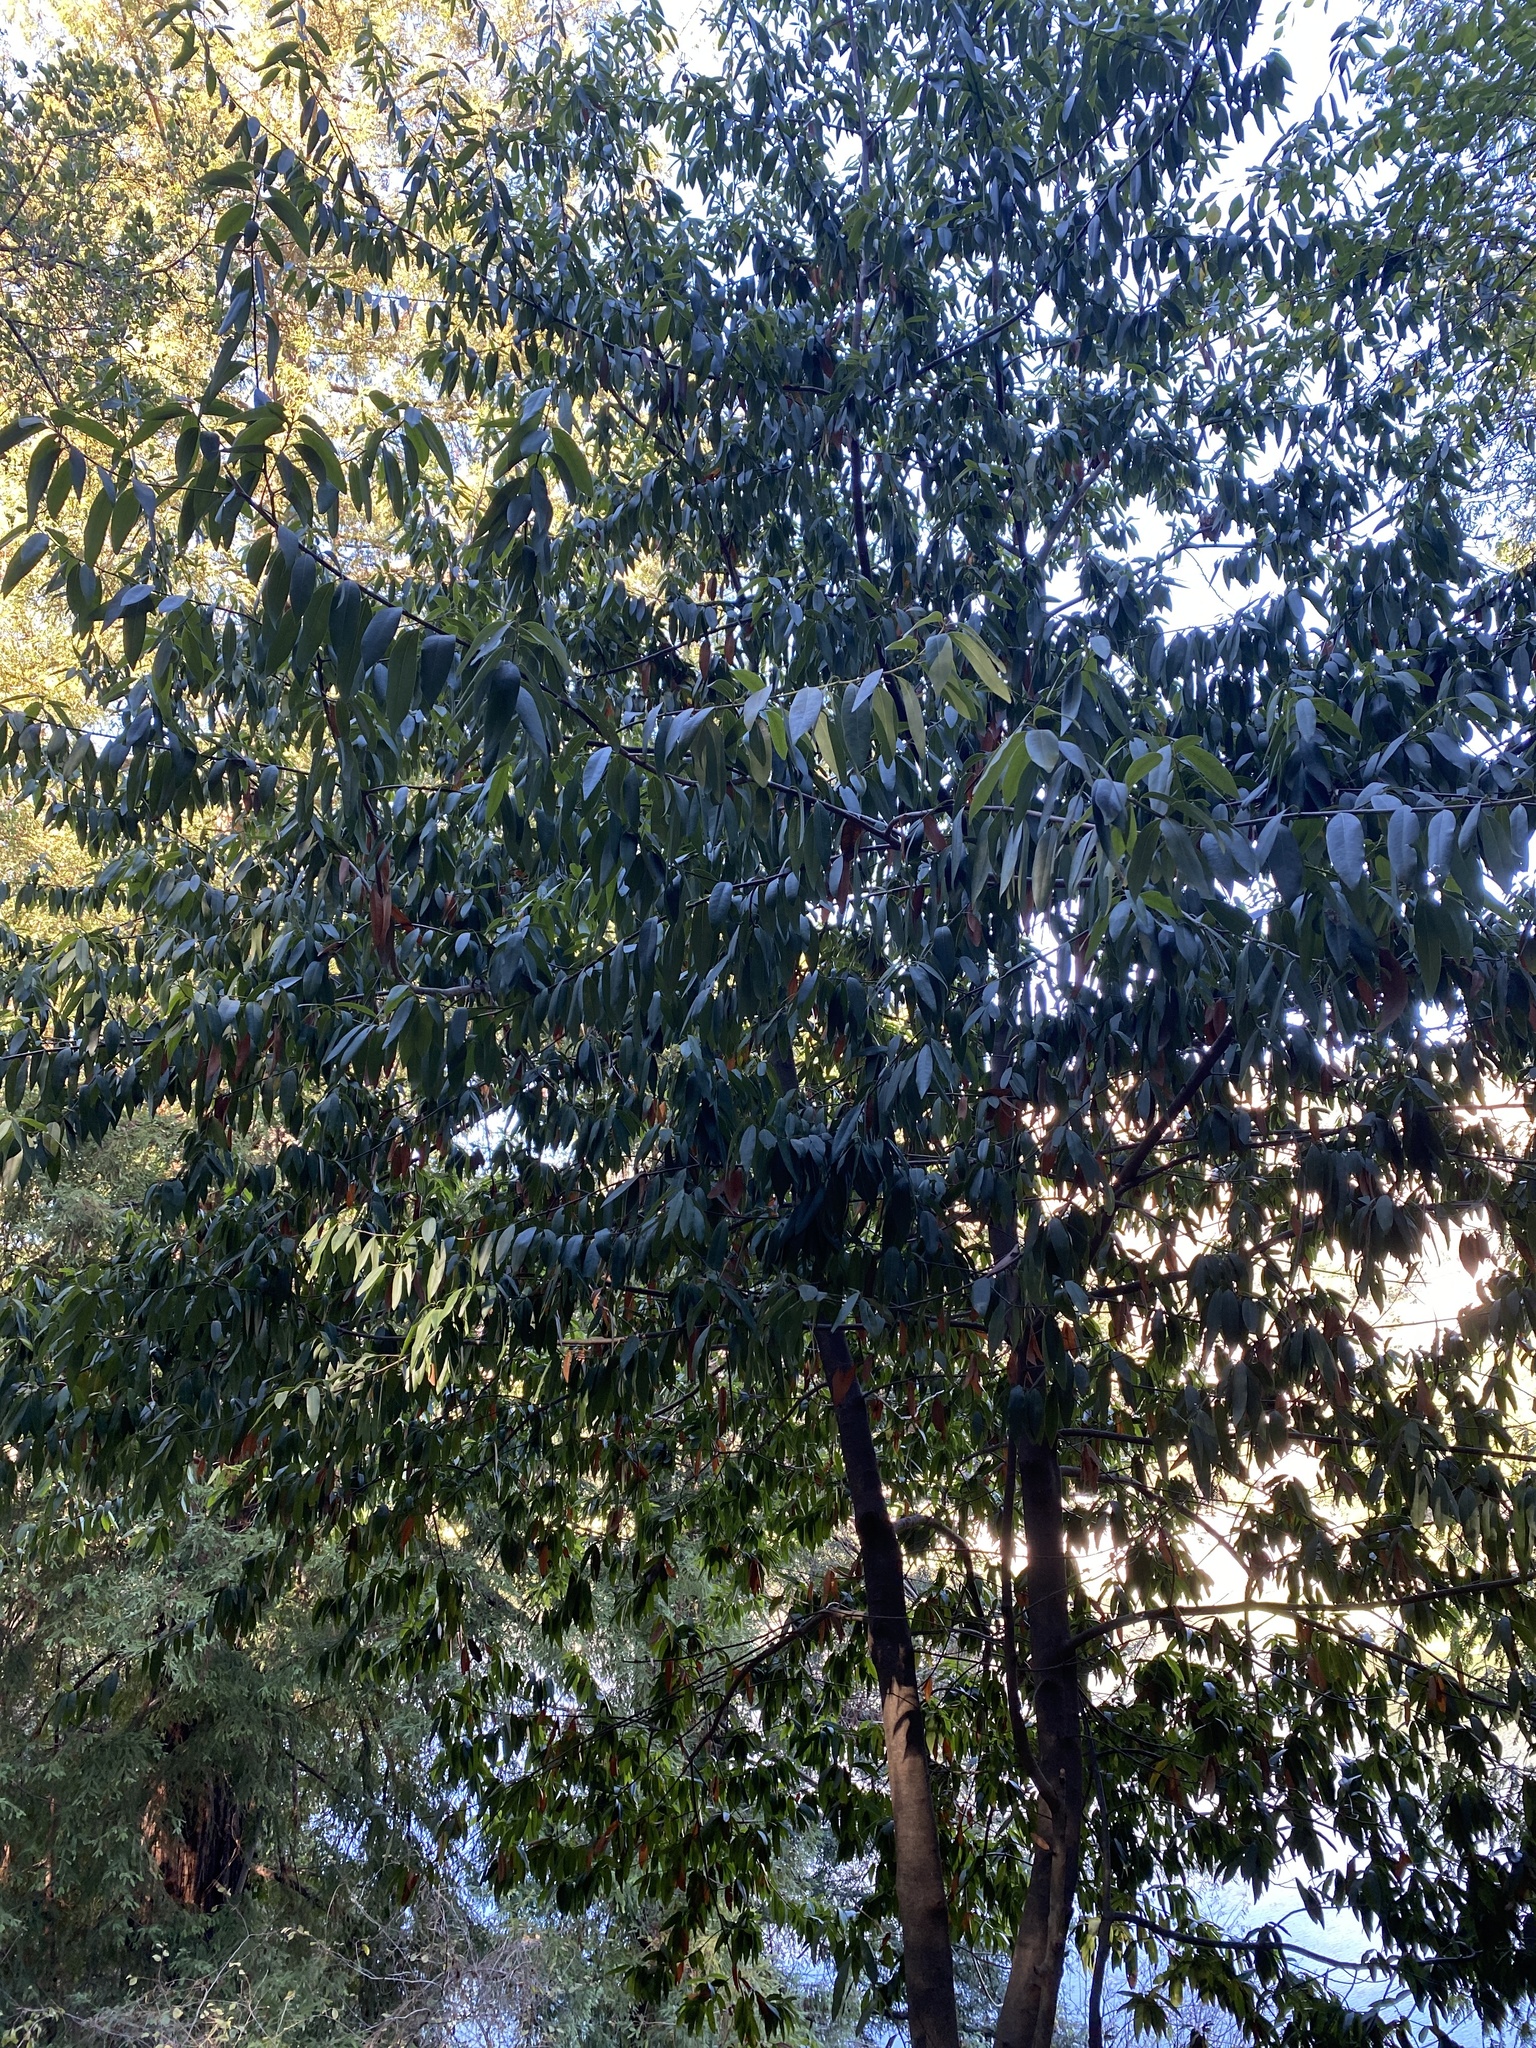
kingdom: Plantae
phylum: Tracheophyta
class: Magnoliopsida
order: Laurales
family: Lauraceae
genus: Umbellularia
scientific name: Umbellularia californica
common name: California bay
